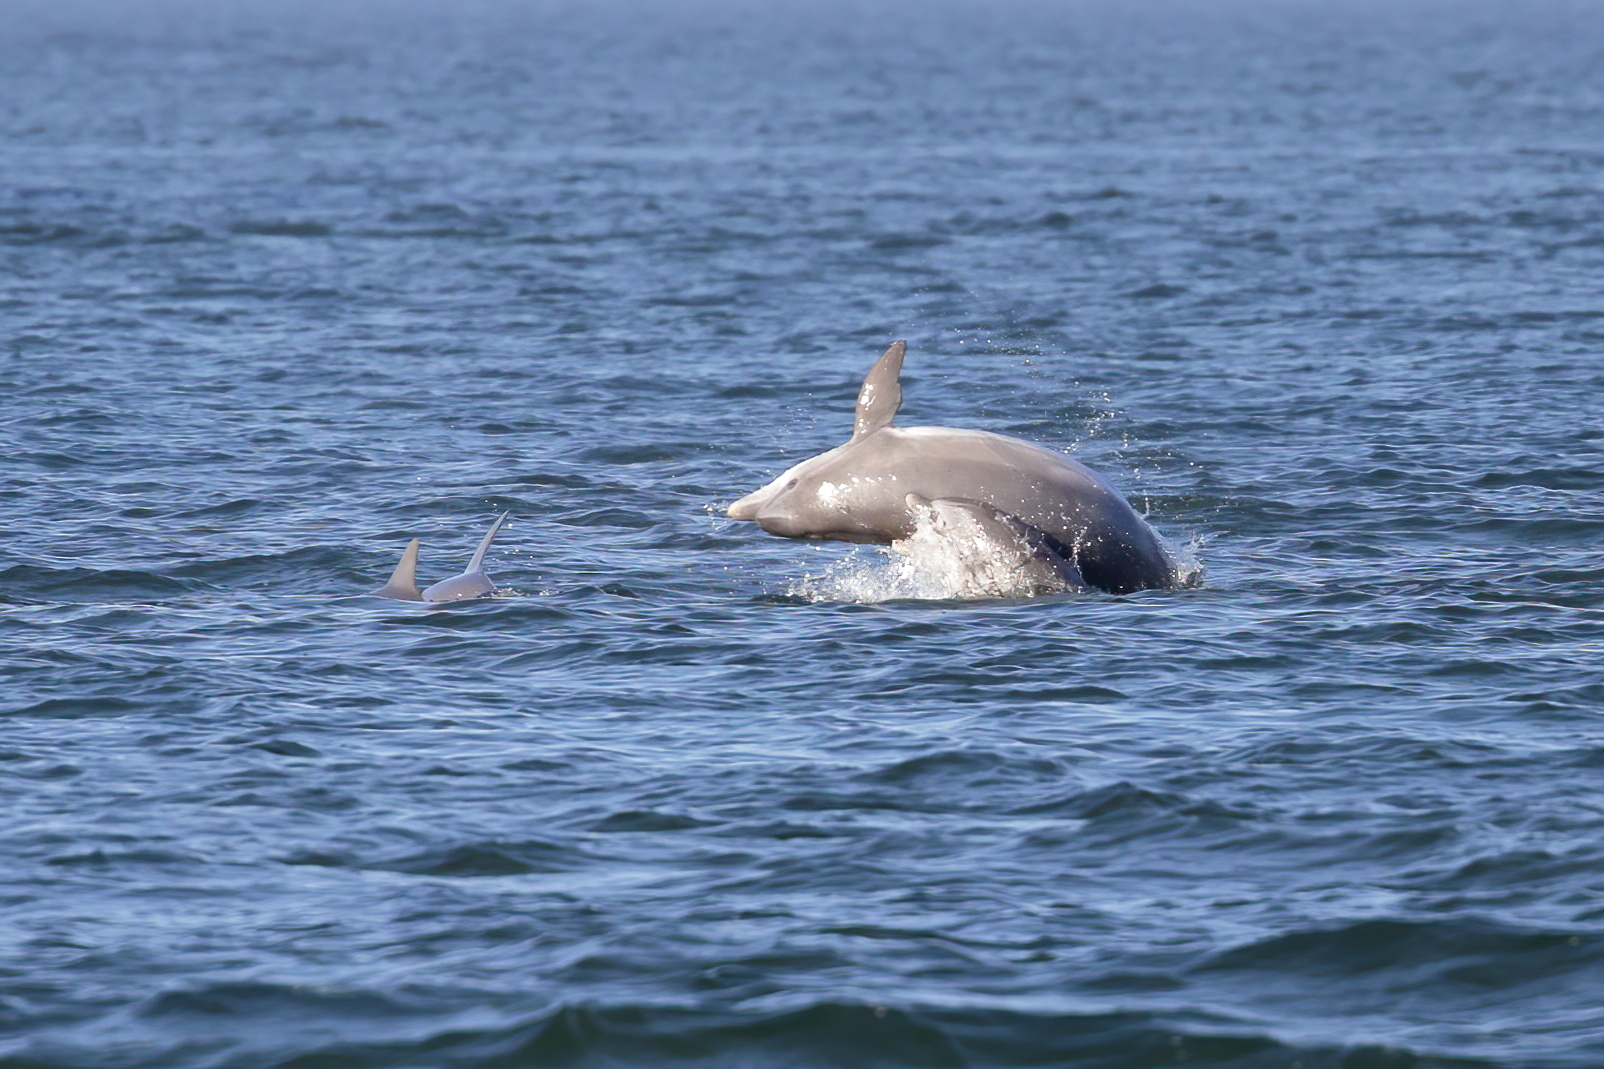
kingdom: Animalia
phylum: Chordata
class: Mammalia
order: Cetacea
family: Delphinidae
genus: Tursiops
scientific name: Tursiops truncatus
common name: Bottlenose dolphin
